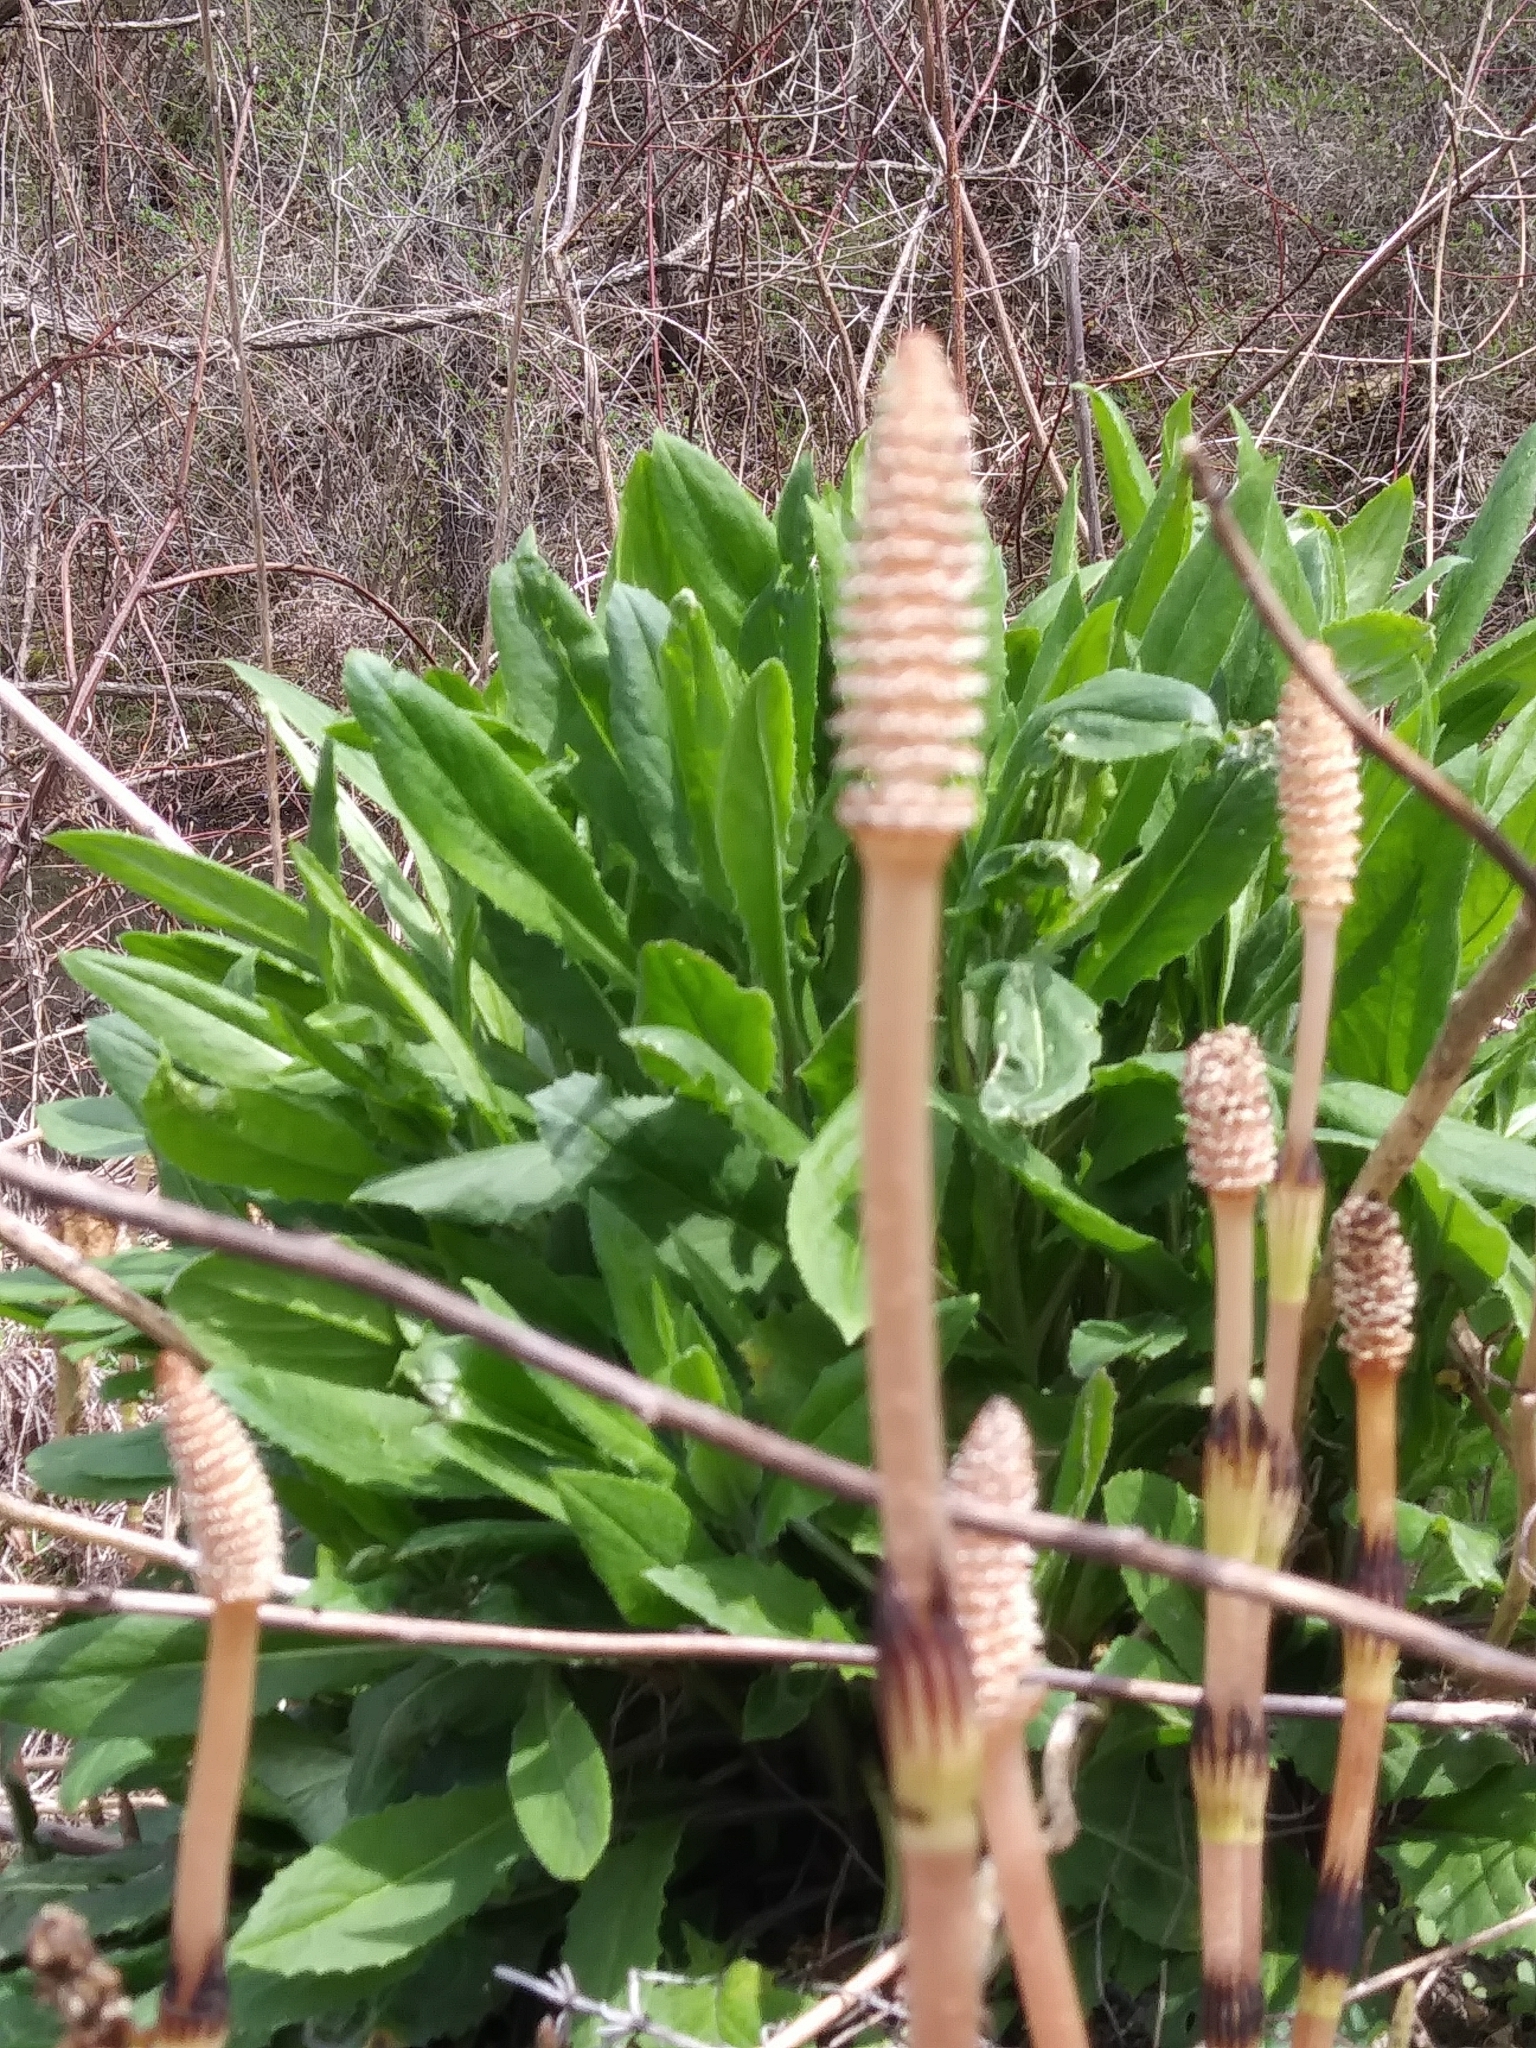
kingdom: Plantae
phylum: Tracheophyta
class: Polypodiopsida
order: Equisetales
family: Equisetaceae
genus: Equisetum
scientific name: Equisetum arvense
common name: Field horsetail
